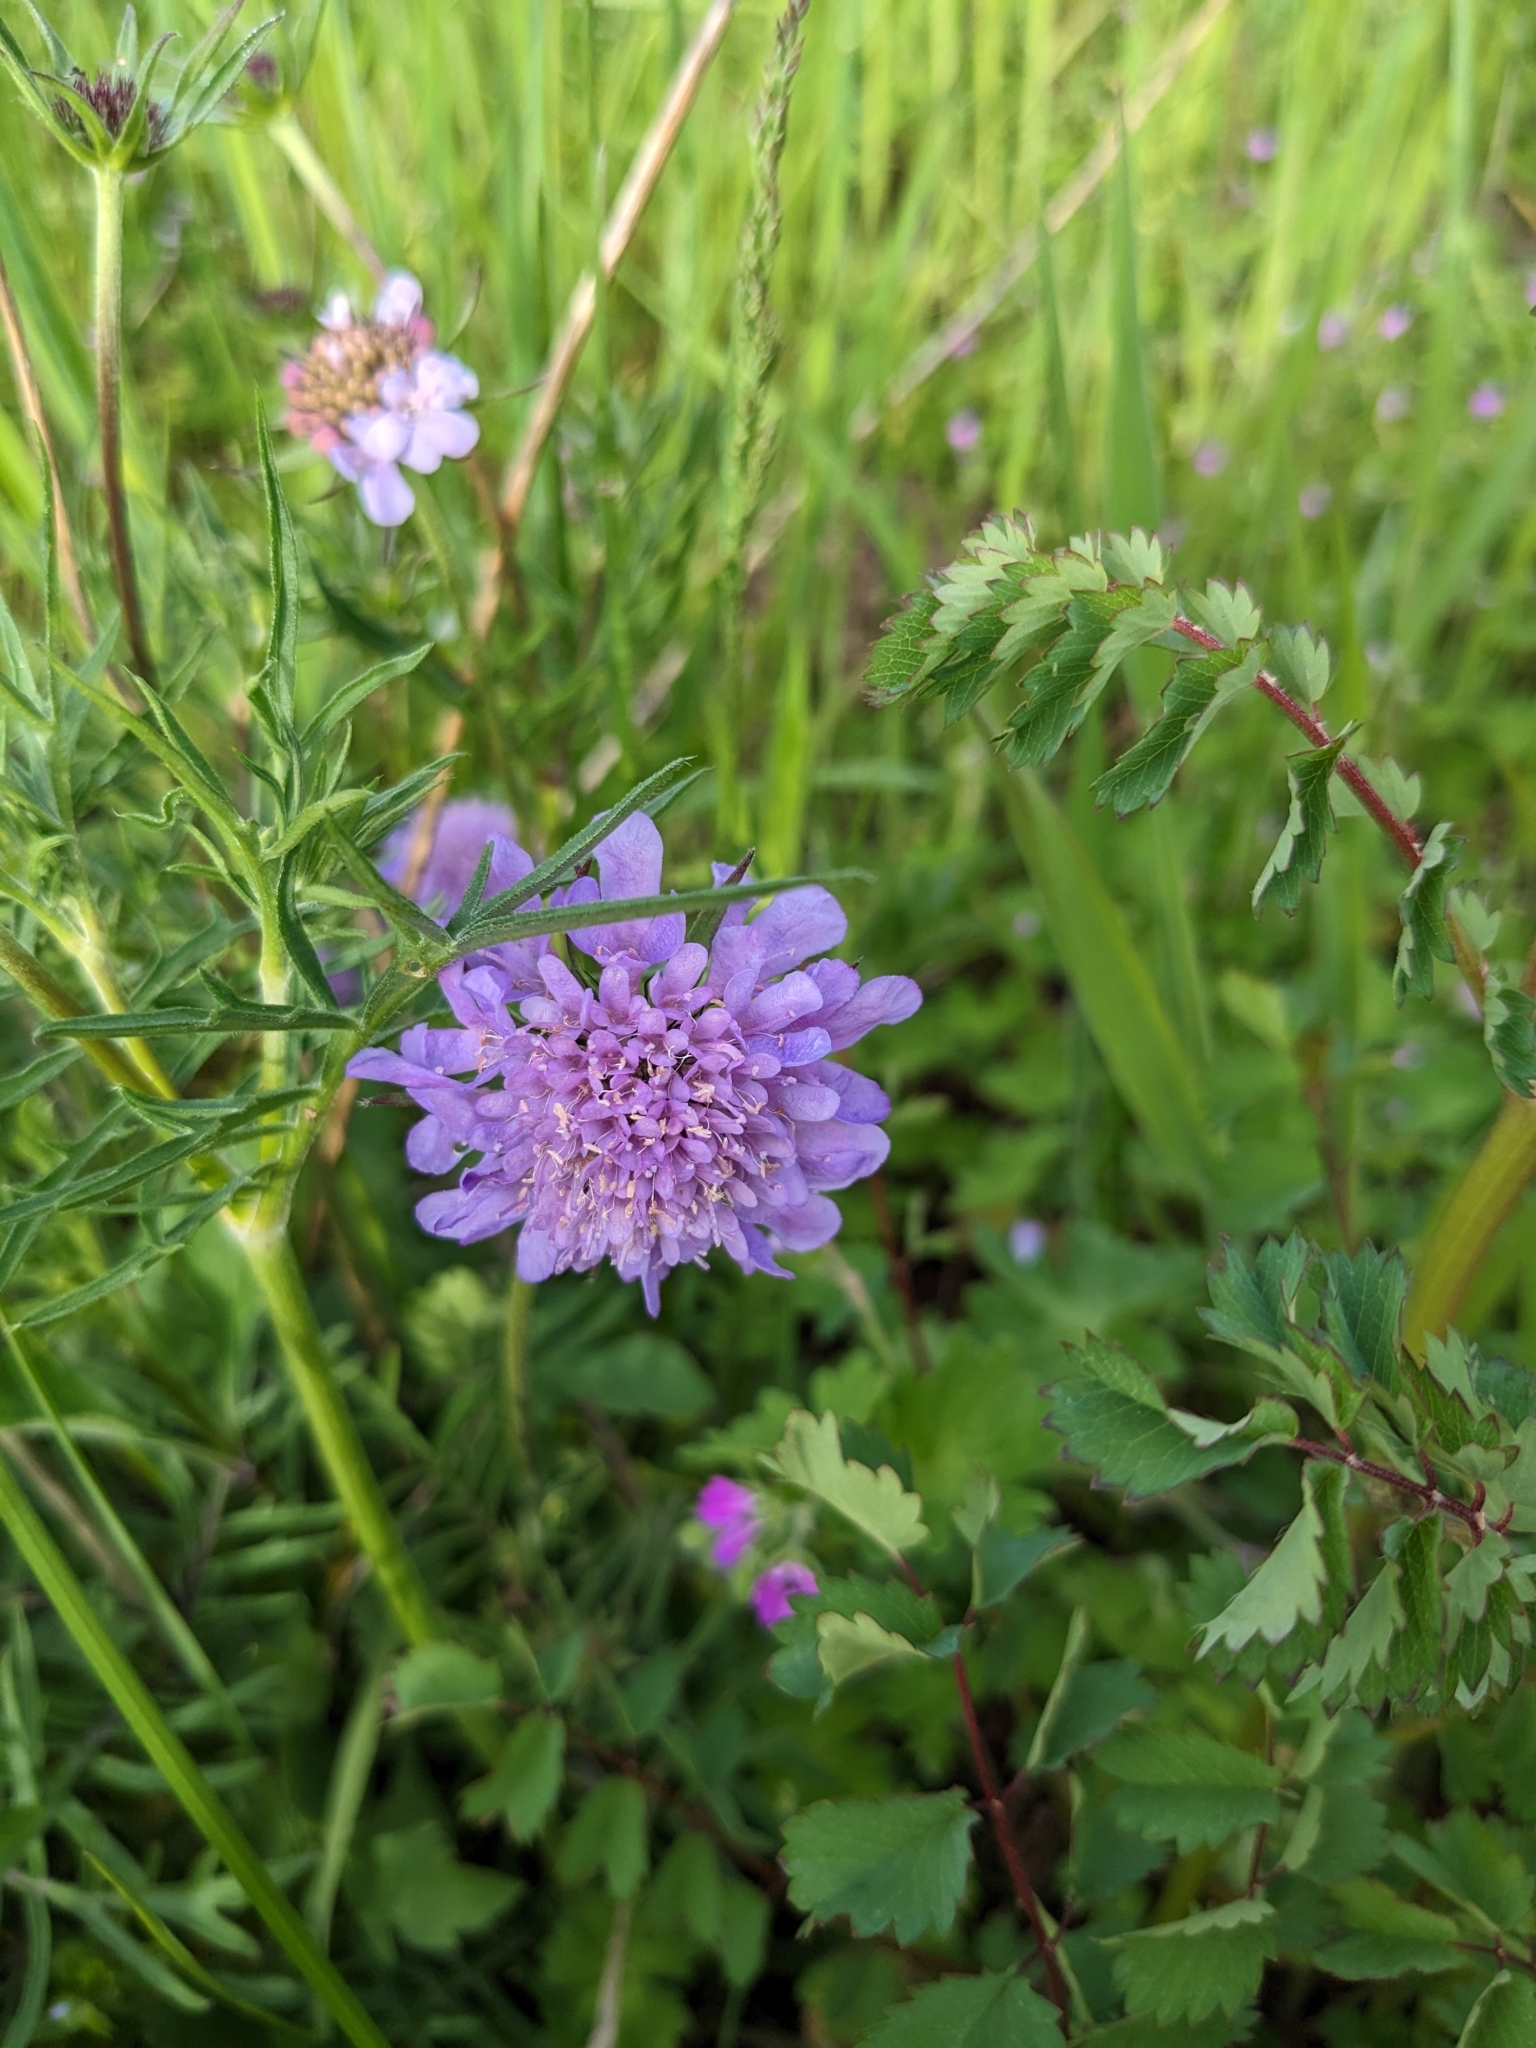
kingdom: Plantae
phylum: Tracheophyta
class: Magnoliopsida
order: Dipsacales
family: Caprifoliaceae
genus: Knautia
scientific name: Knautia arvensis
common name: Field scabiosa
